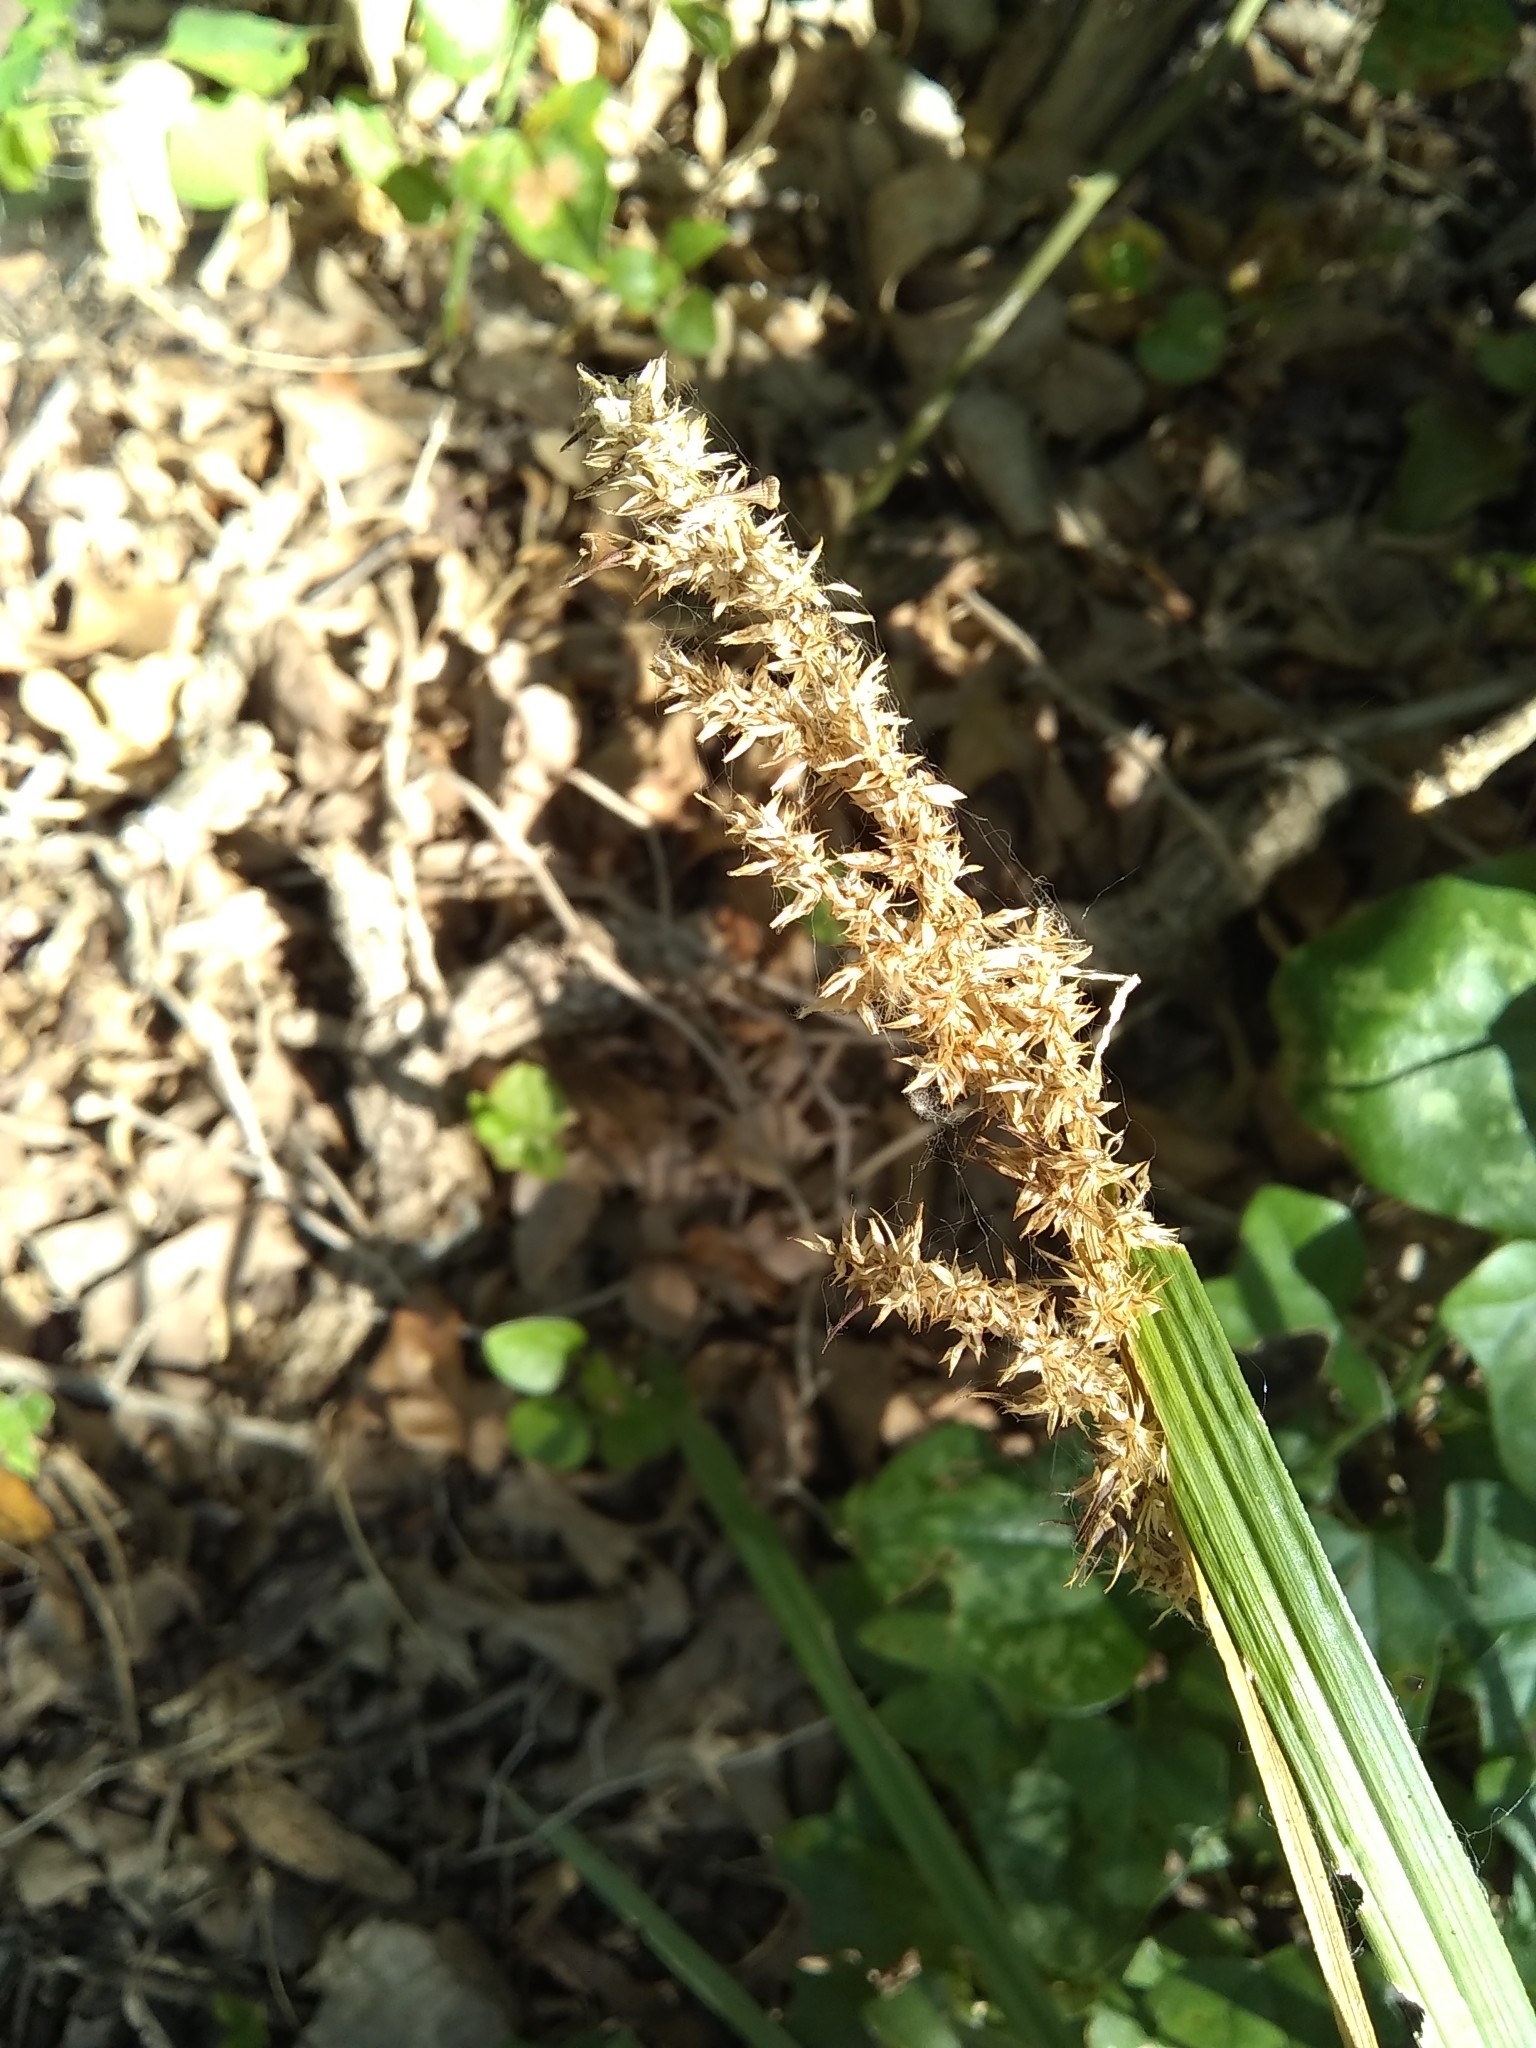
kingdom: Plantae
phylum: Tracheophyta
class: Liliopsida
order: Poales
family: Cyperaceae
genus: Carex
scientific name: Carex crus-corvi
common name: Crow-spur sedge
